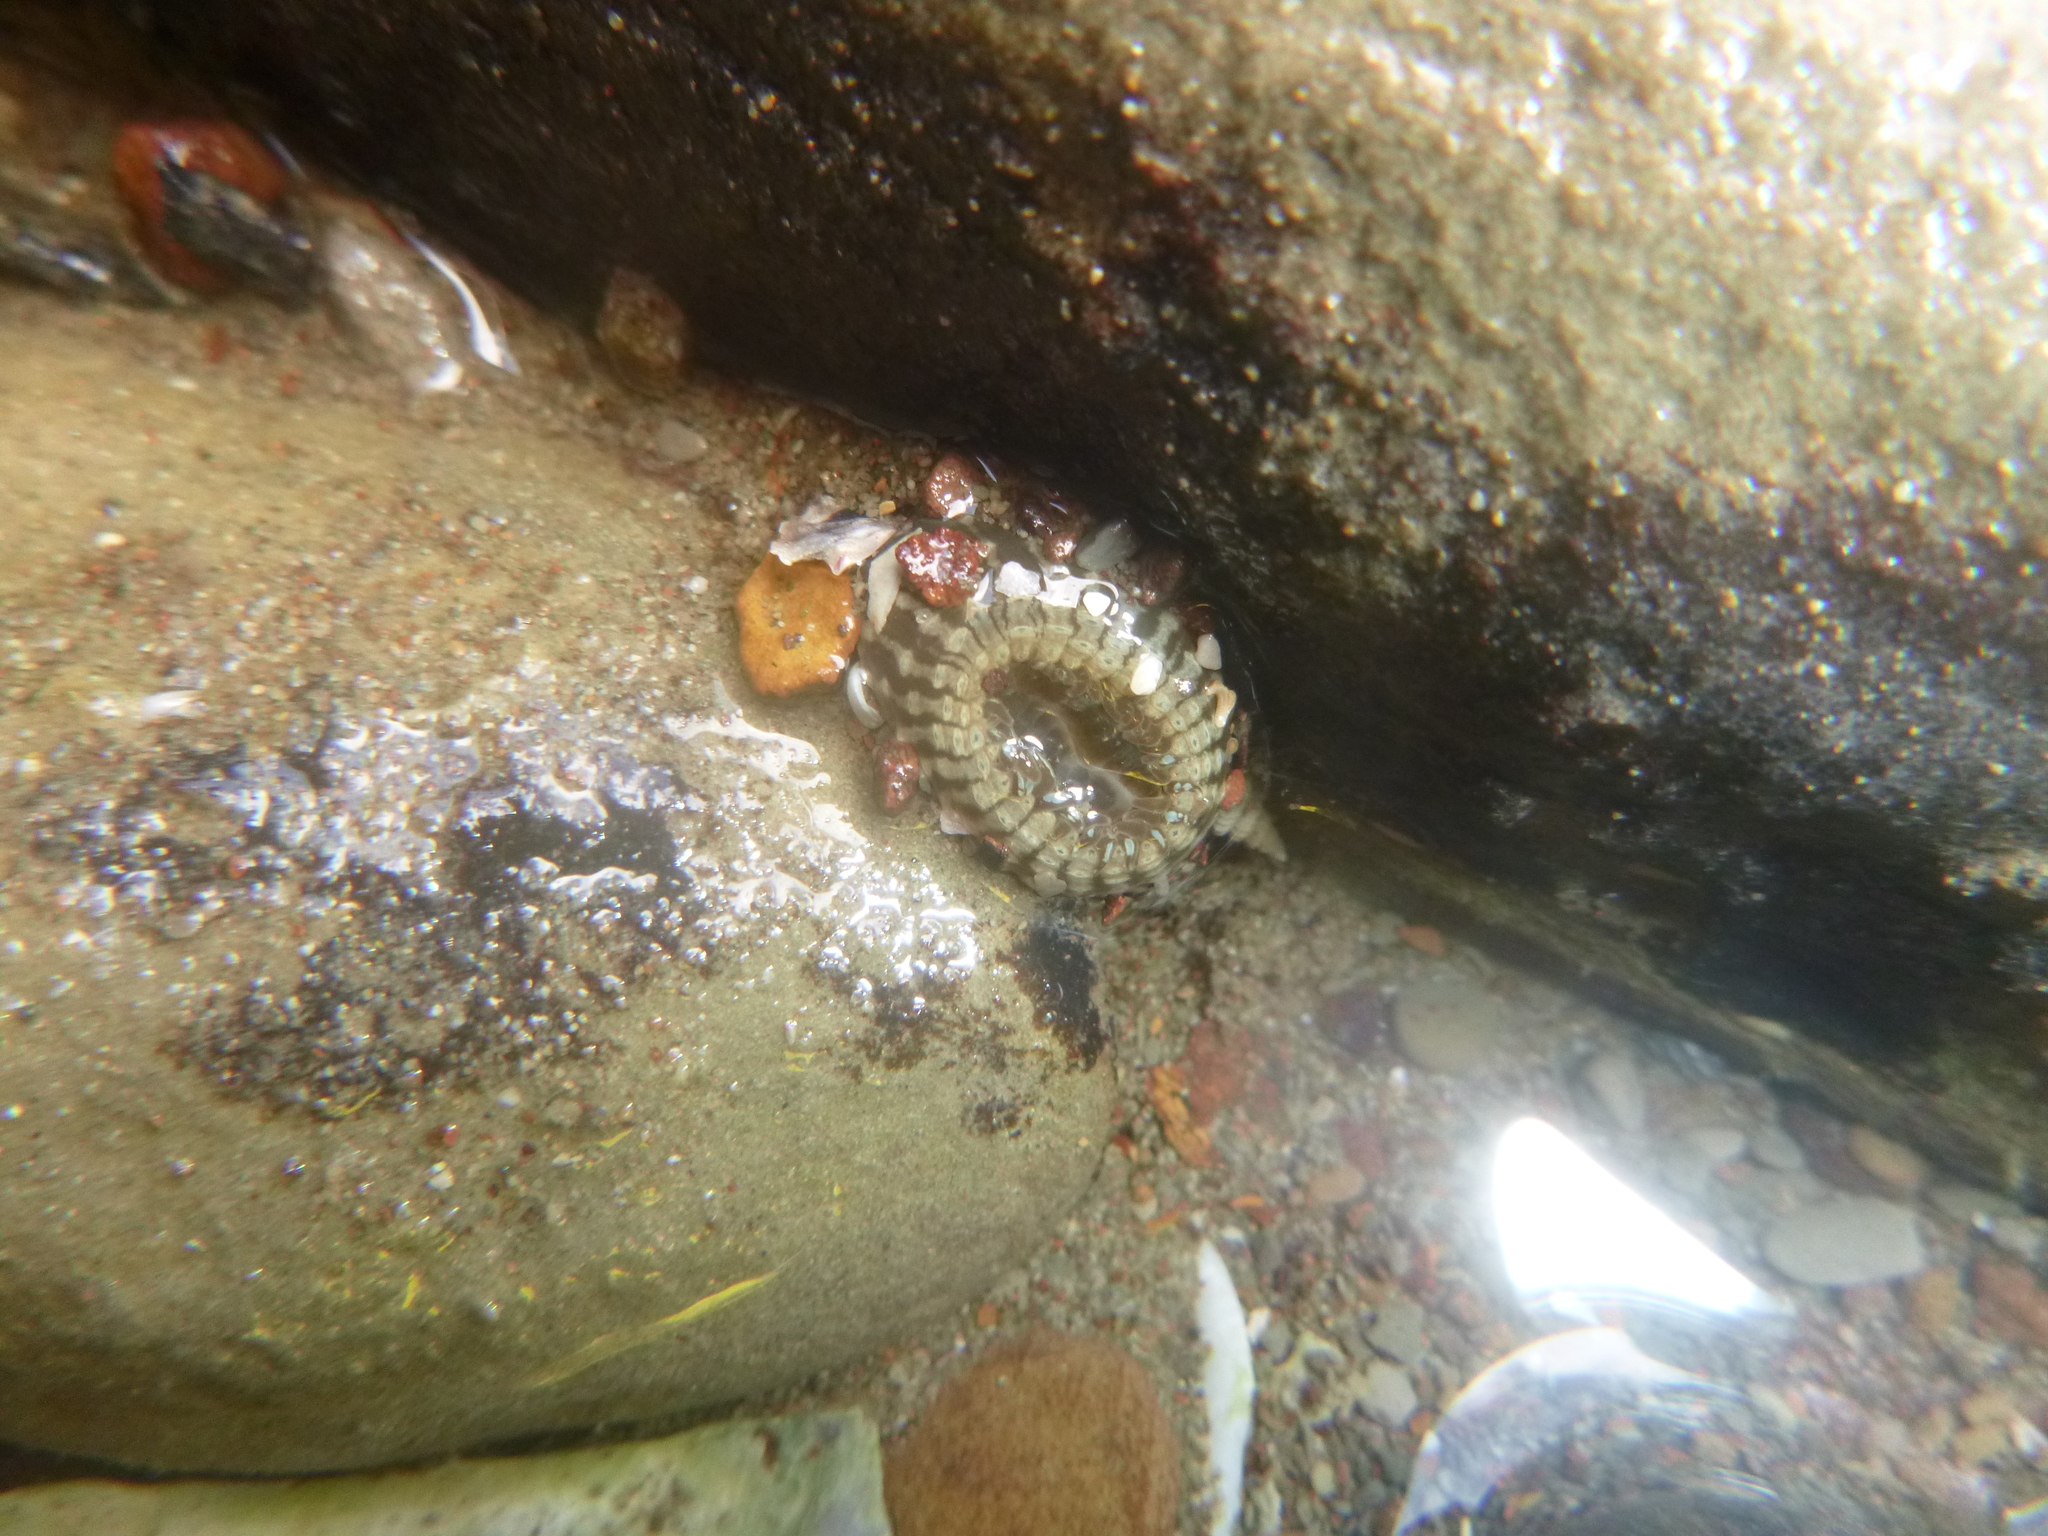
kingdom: Animalia
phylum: Cnidaria
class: Anthozoa
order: Actiniaria
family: Actiniidae
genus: Anthopleura
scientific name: Anthopleura hermaphroditica
